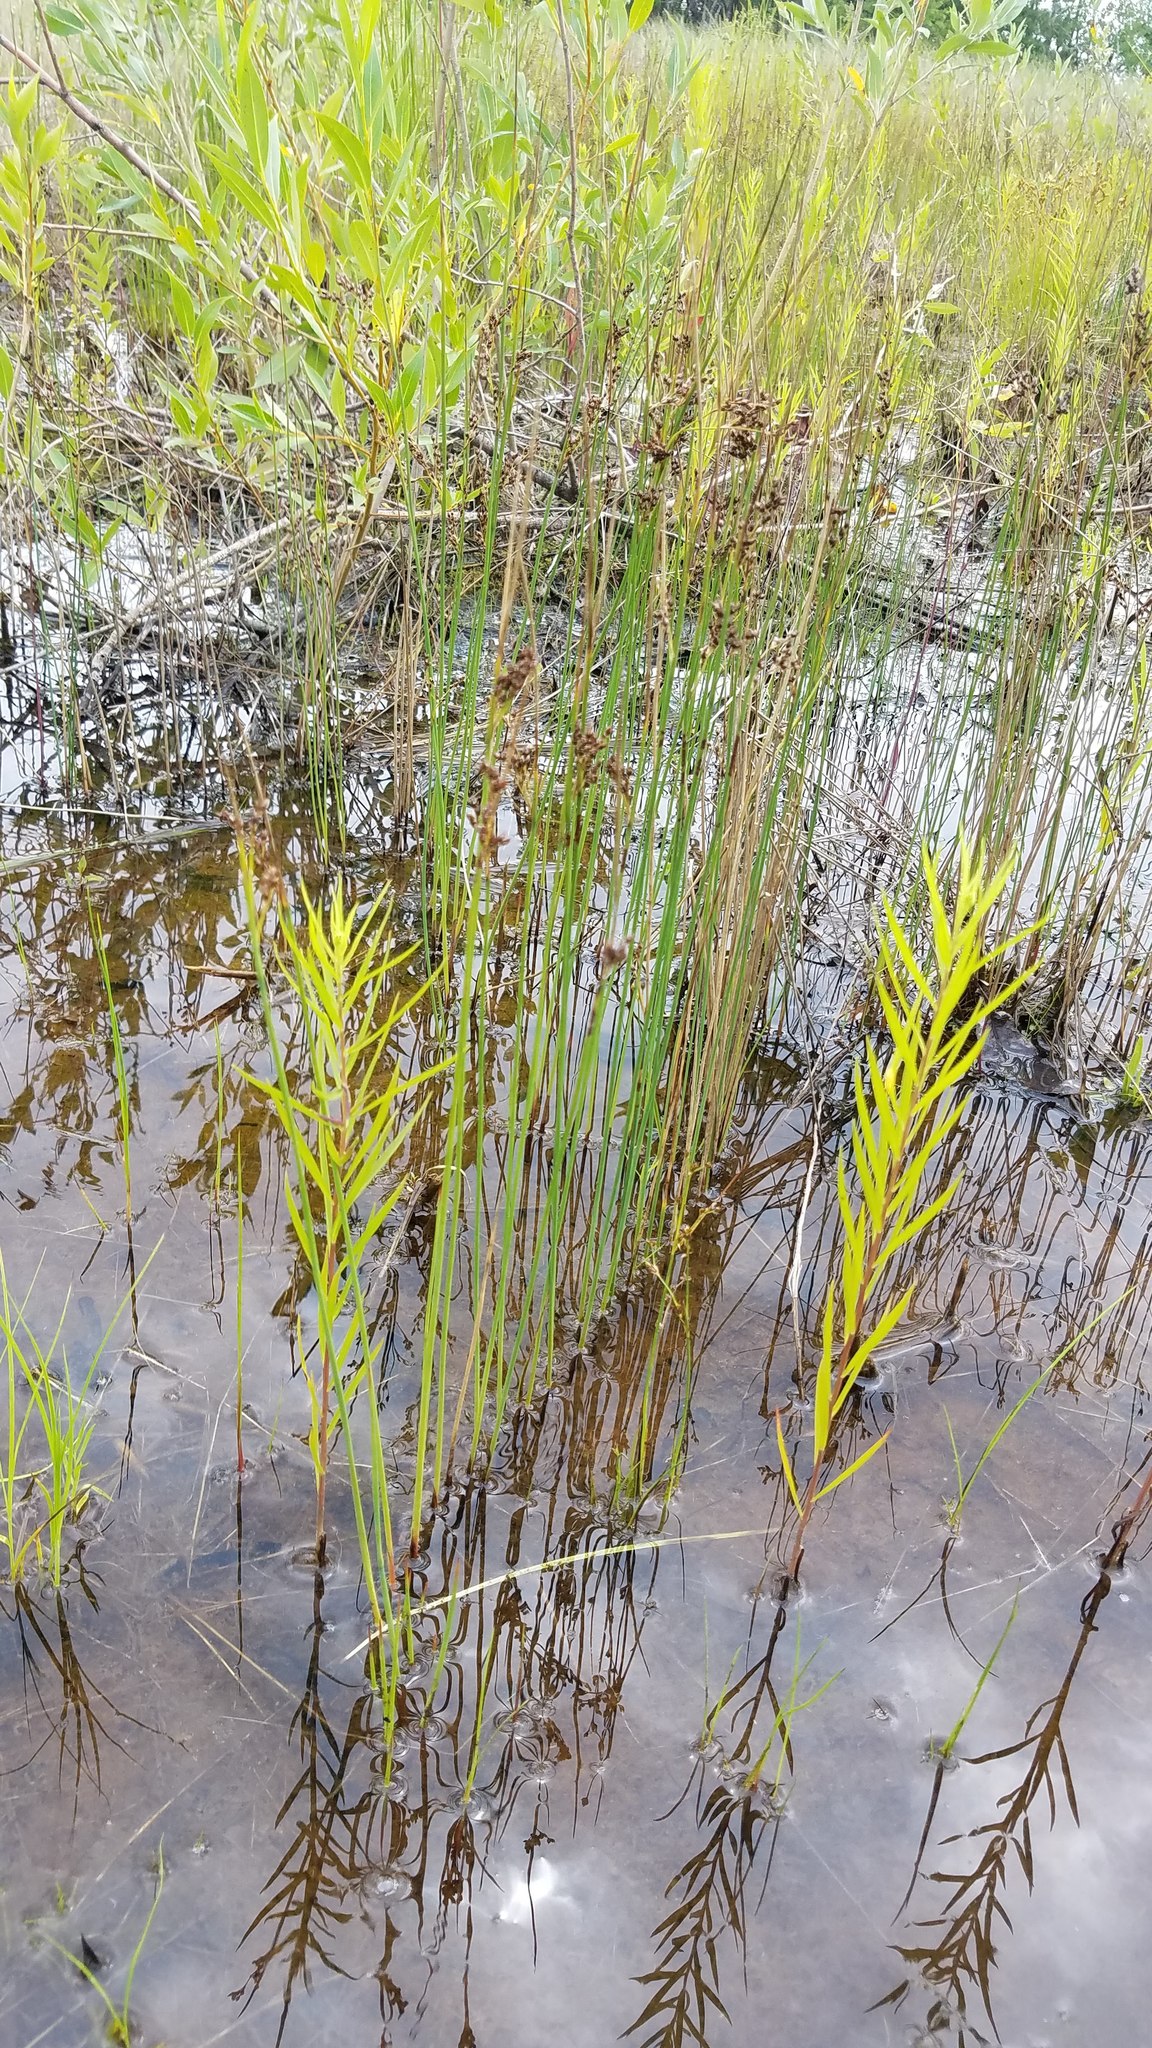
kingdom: Plantae
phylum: Tracheophyta
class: Liliopsida
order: Poales
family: Juncaceae
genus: Juncus
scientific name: Juncus arcticus
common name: Arctic rush
